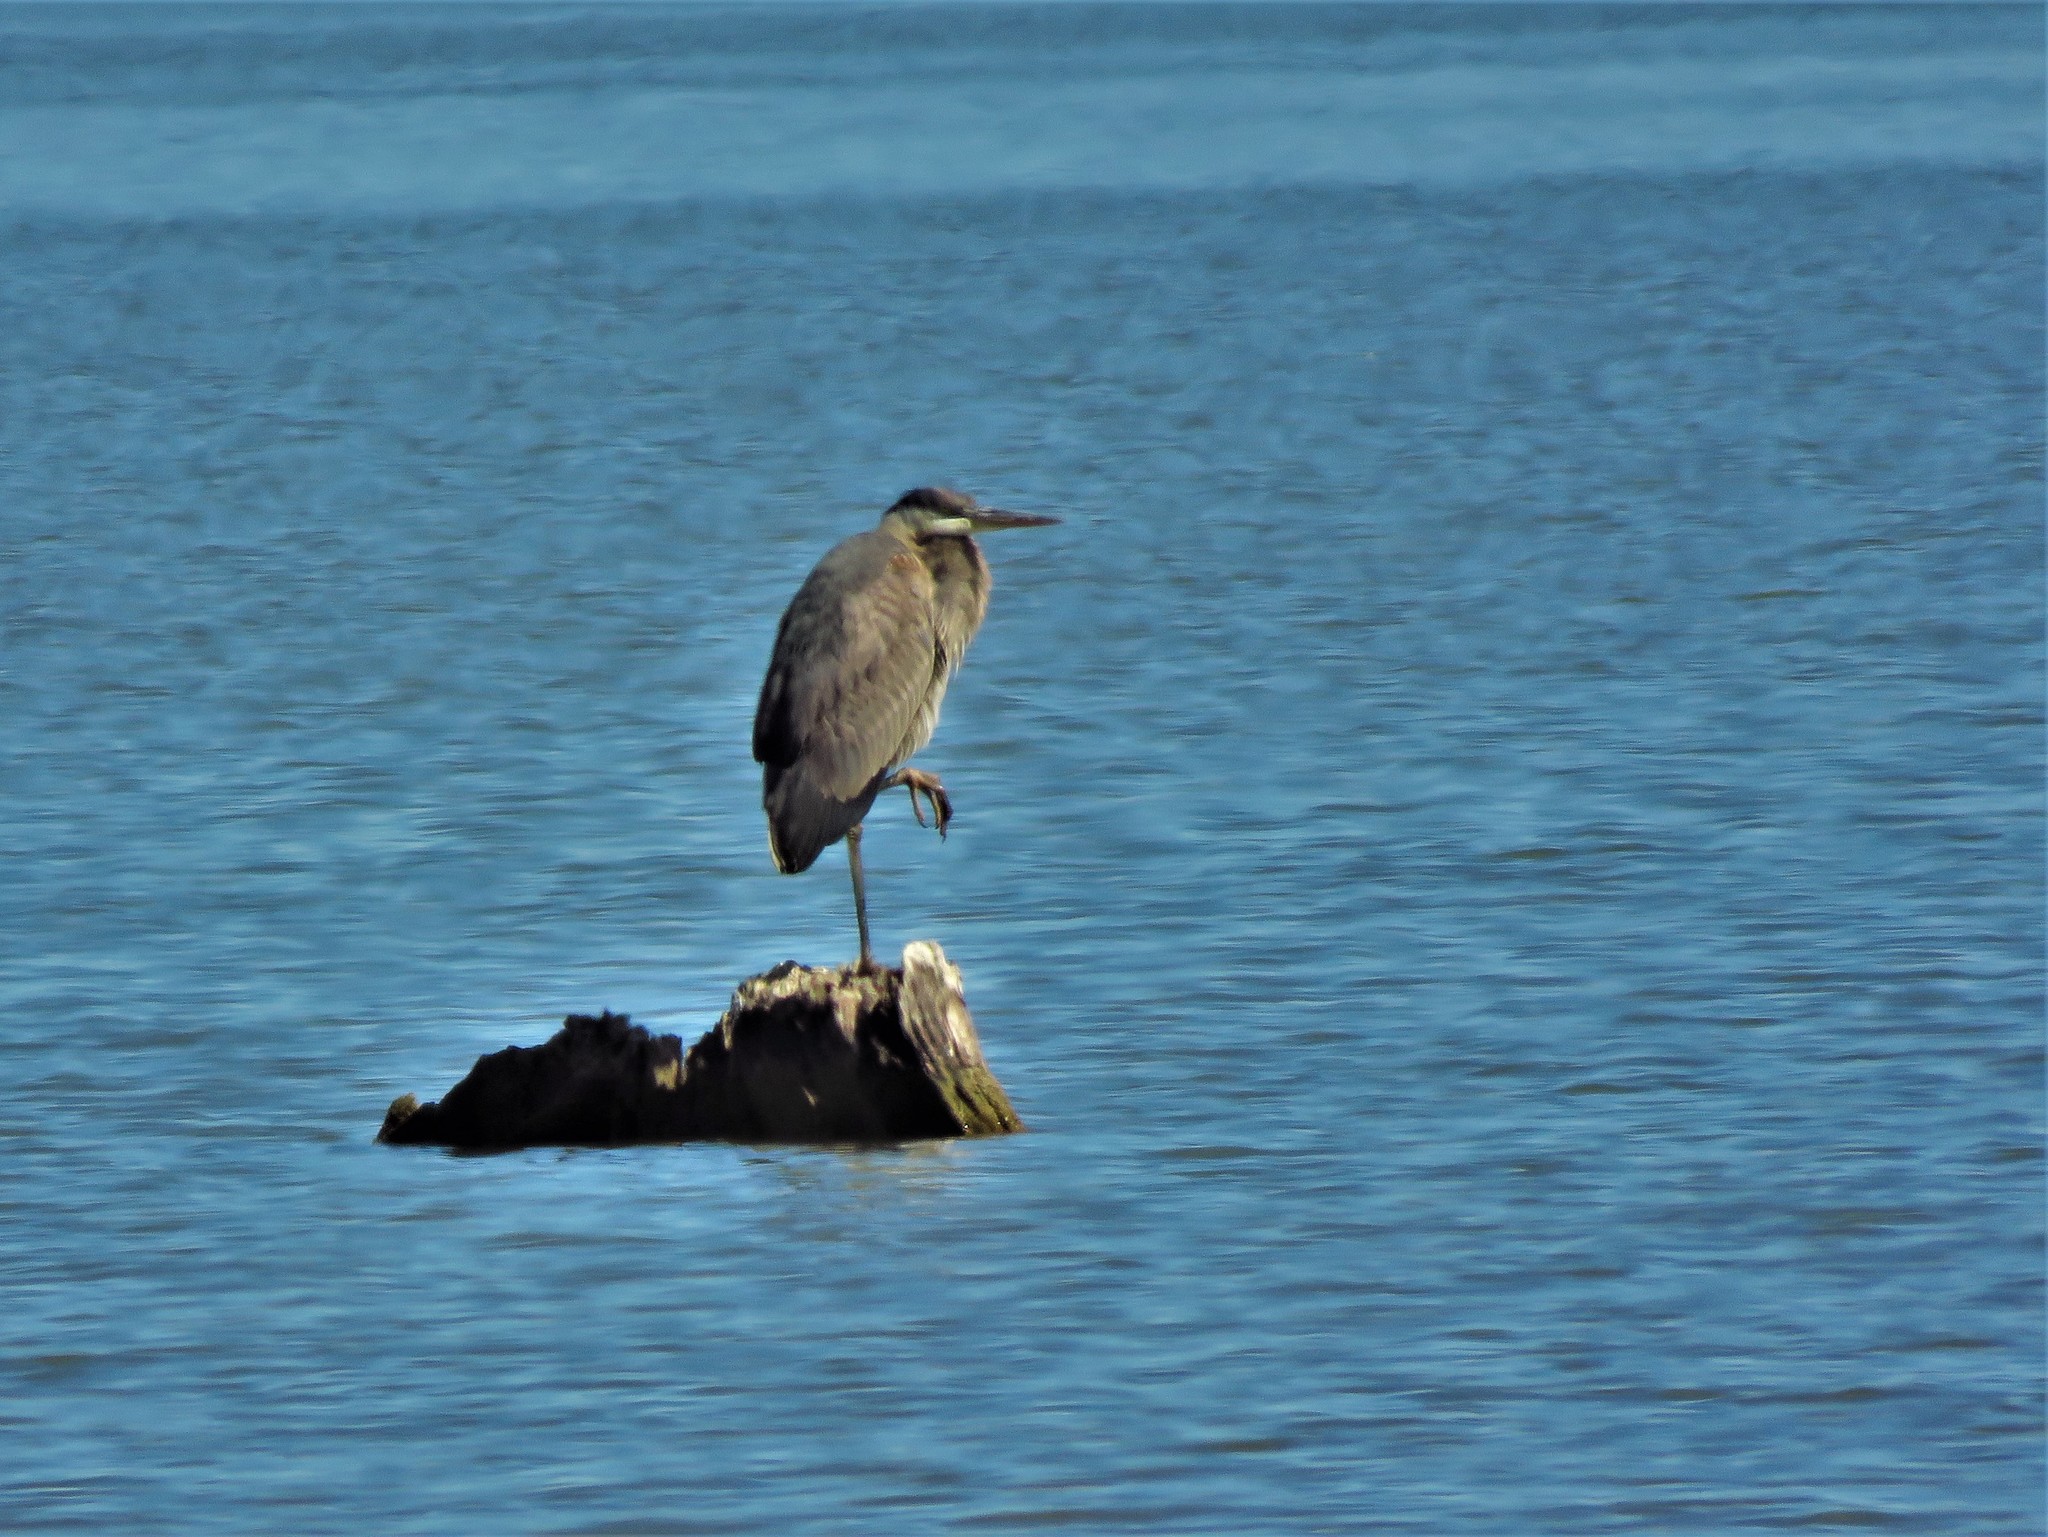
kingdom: Animalia
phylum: Chordata
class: Aves
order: Pelecaniformes
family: Ardeidae
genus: Ardea
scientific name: Ardea herodias
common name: Great blue heron
